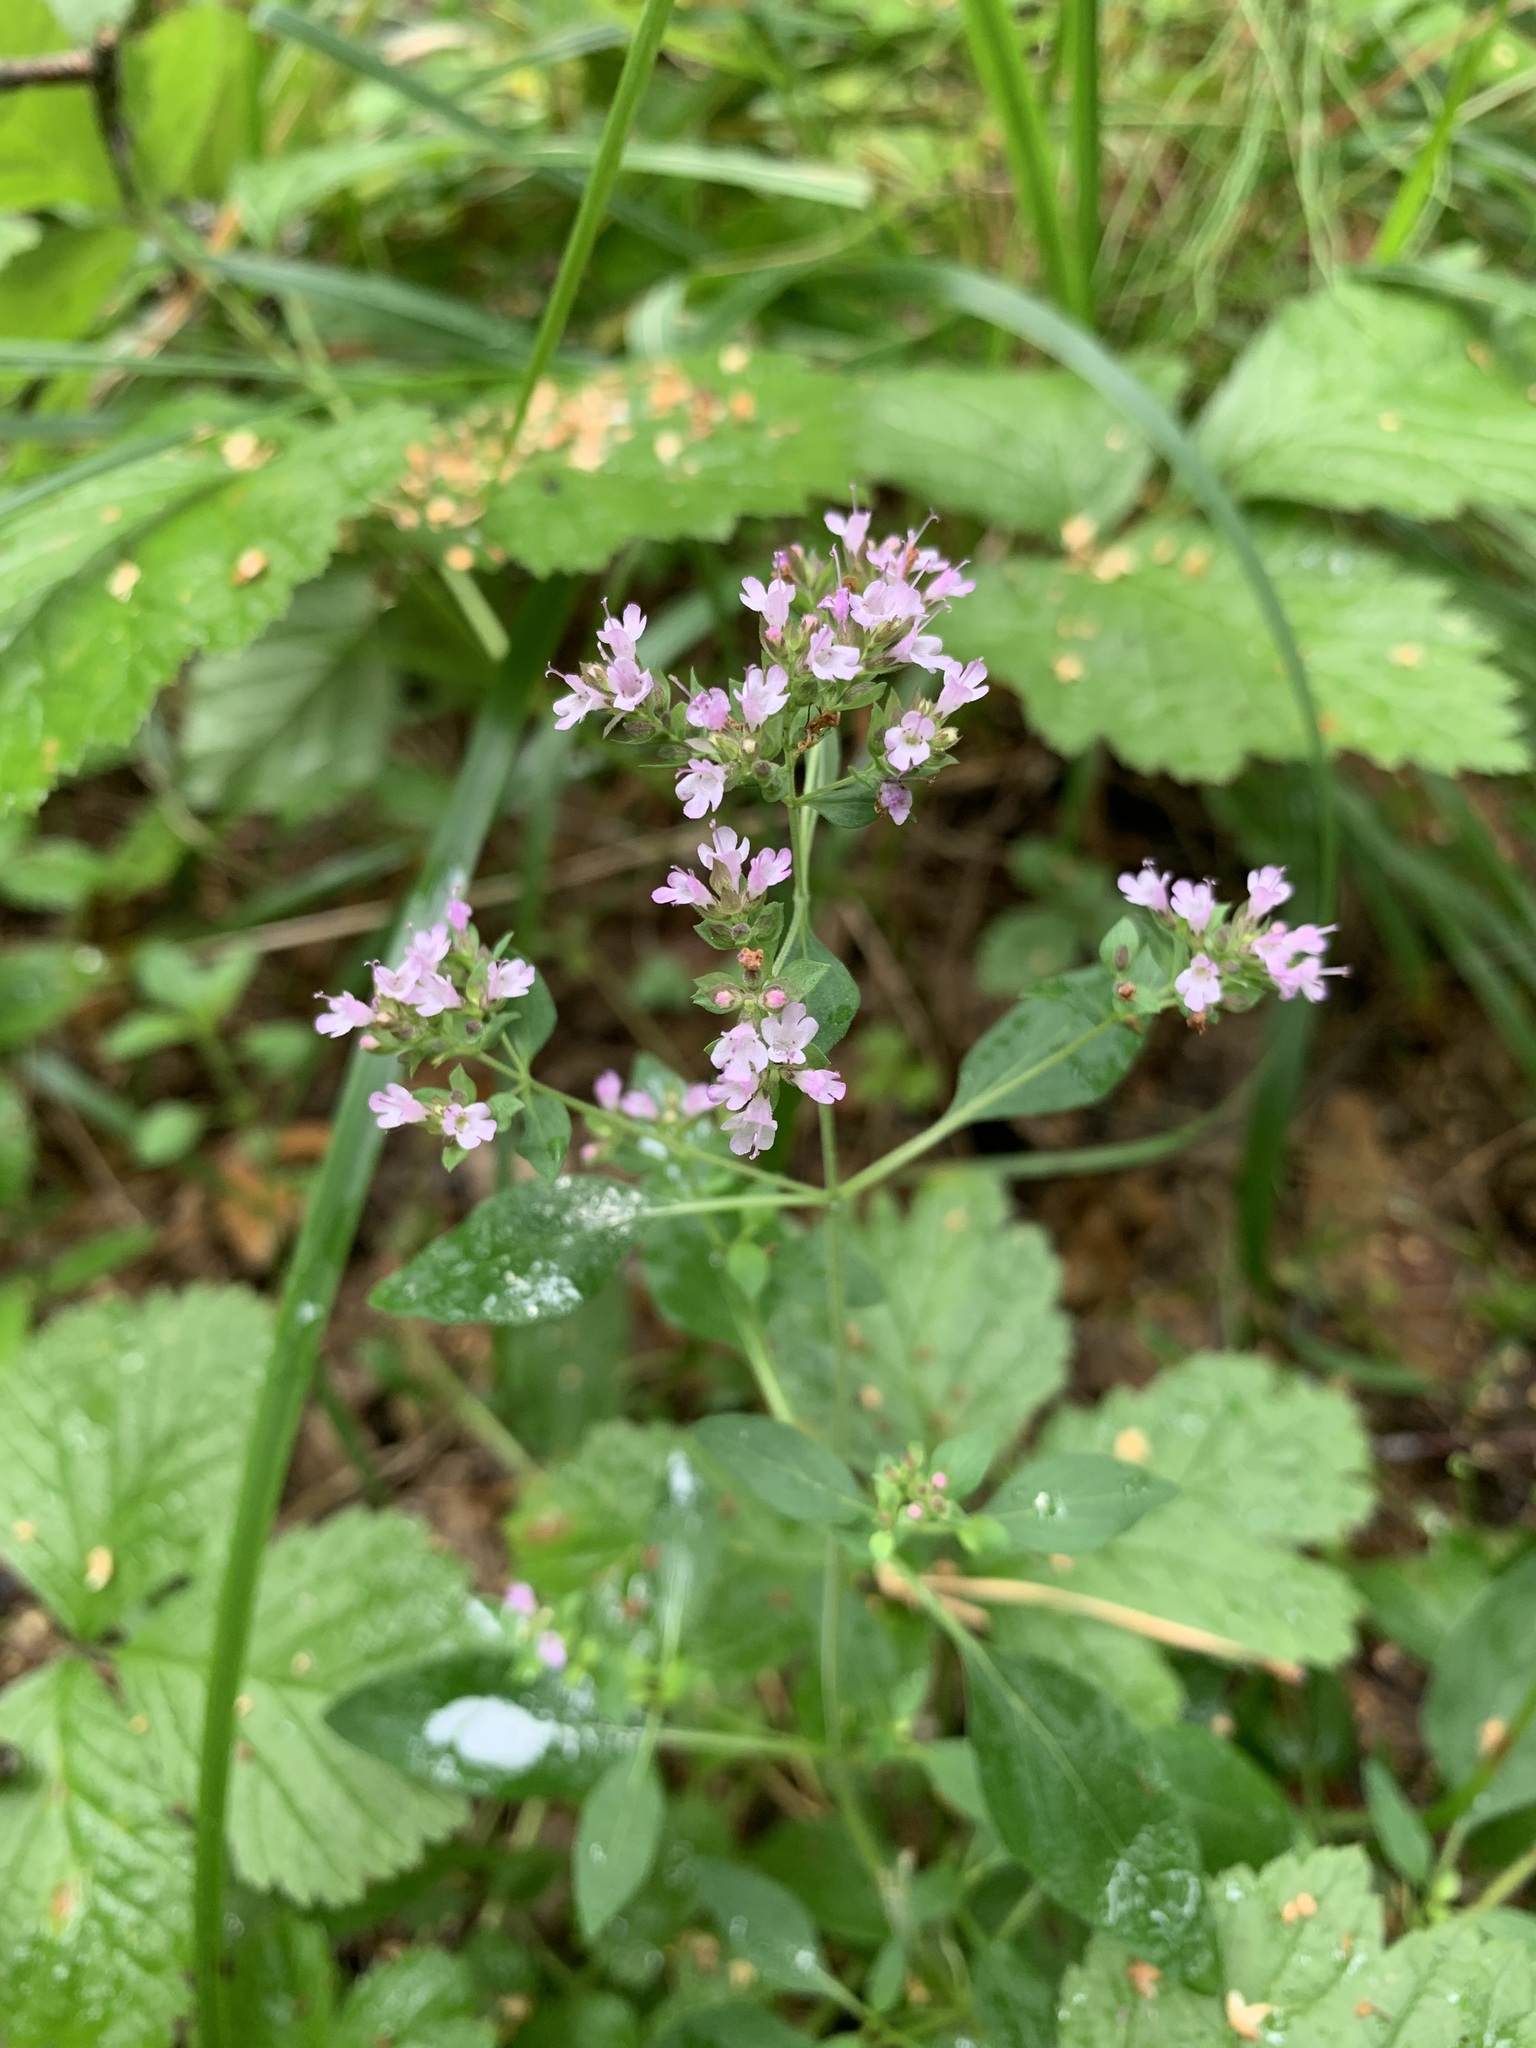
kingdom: Plantae
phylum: Tracheophyta
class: Magnoliopsida
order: Lamiales
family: Lamiaceae
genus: Origanum
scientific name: Origanum vulgare
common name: Wild marjoram
